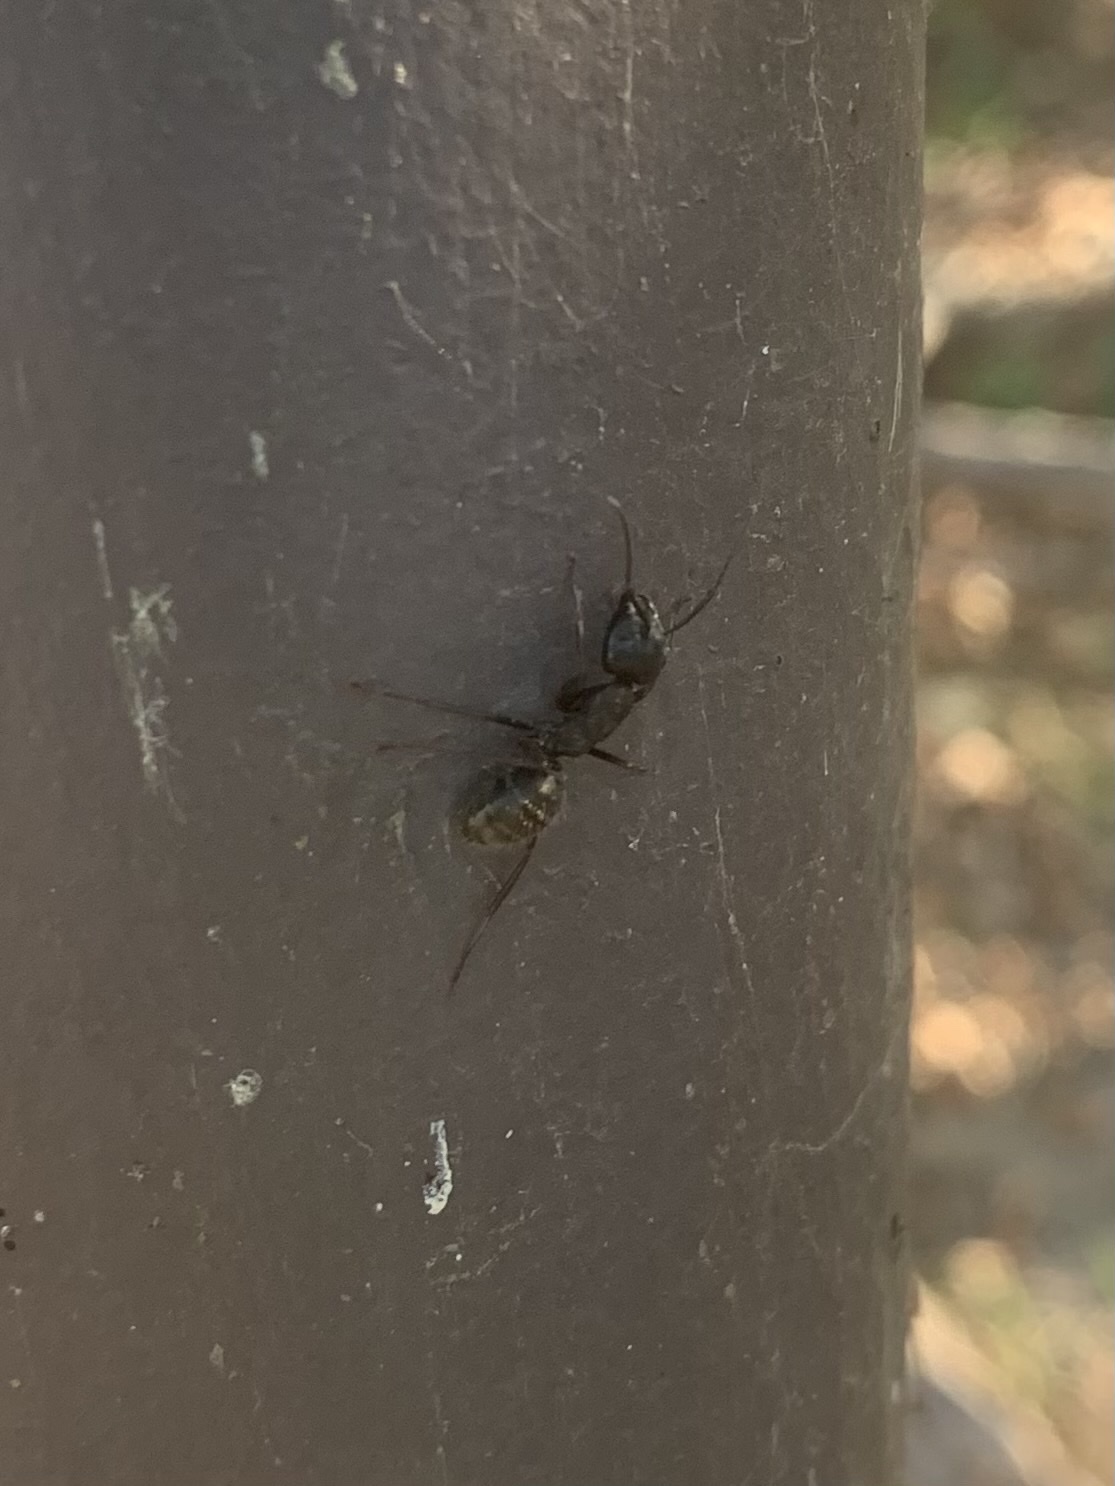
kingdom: Animalia
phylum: Arthropoda
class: Insecta
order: Hymenoptera
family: Formicidae
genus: Camponotus
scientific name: Camponotus pennsylvanicus
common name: Black carpenter ant
